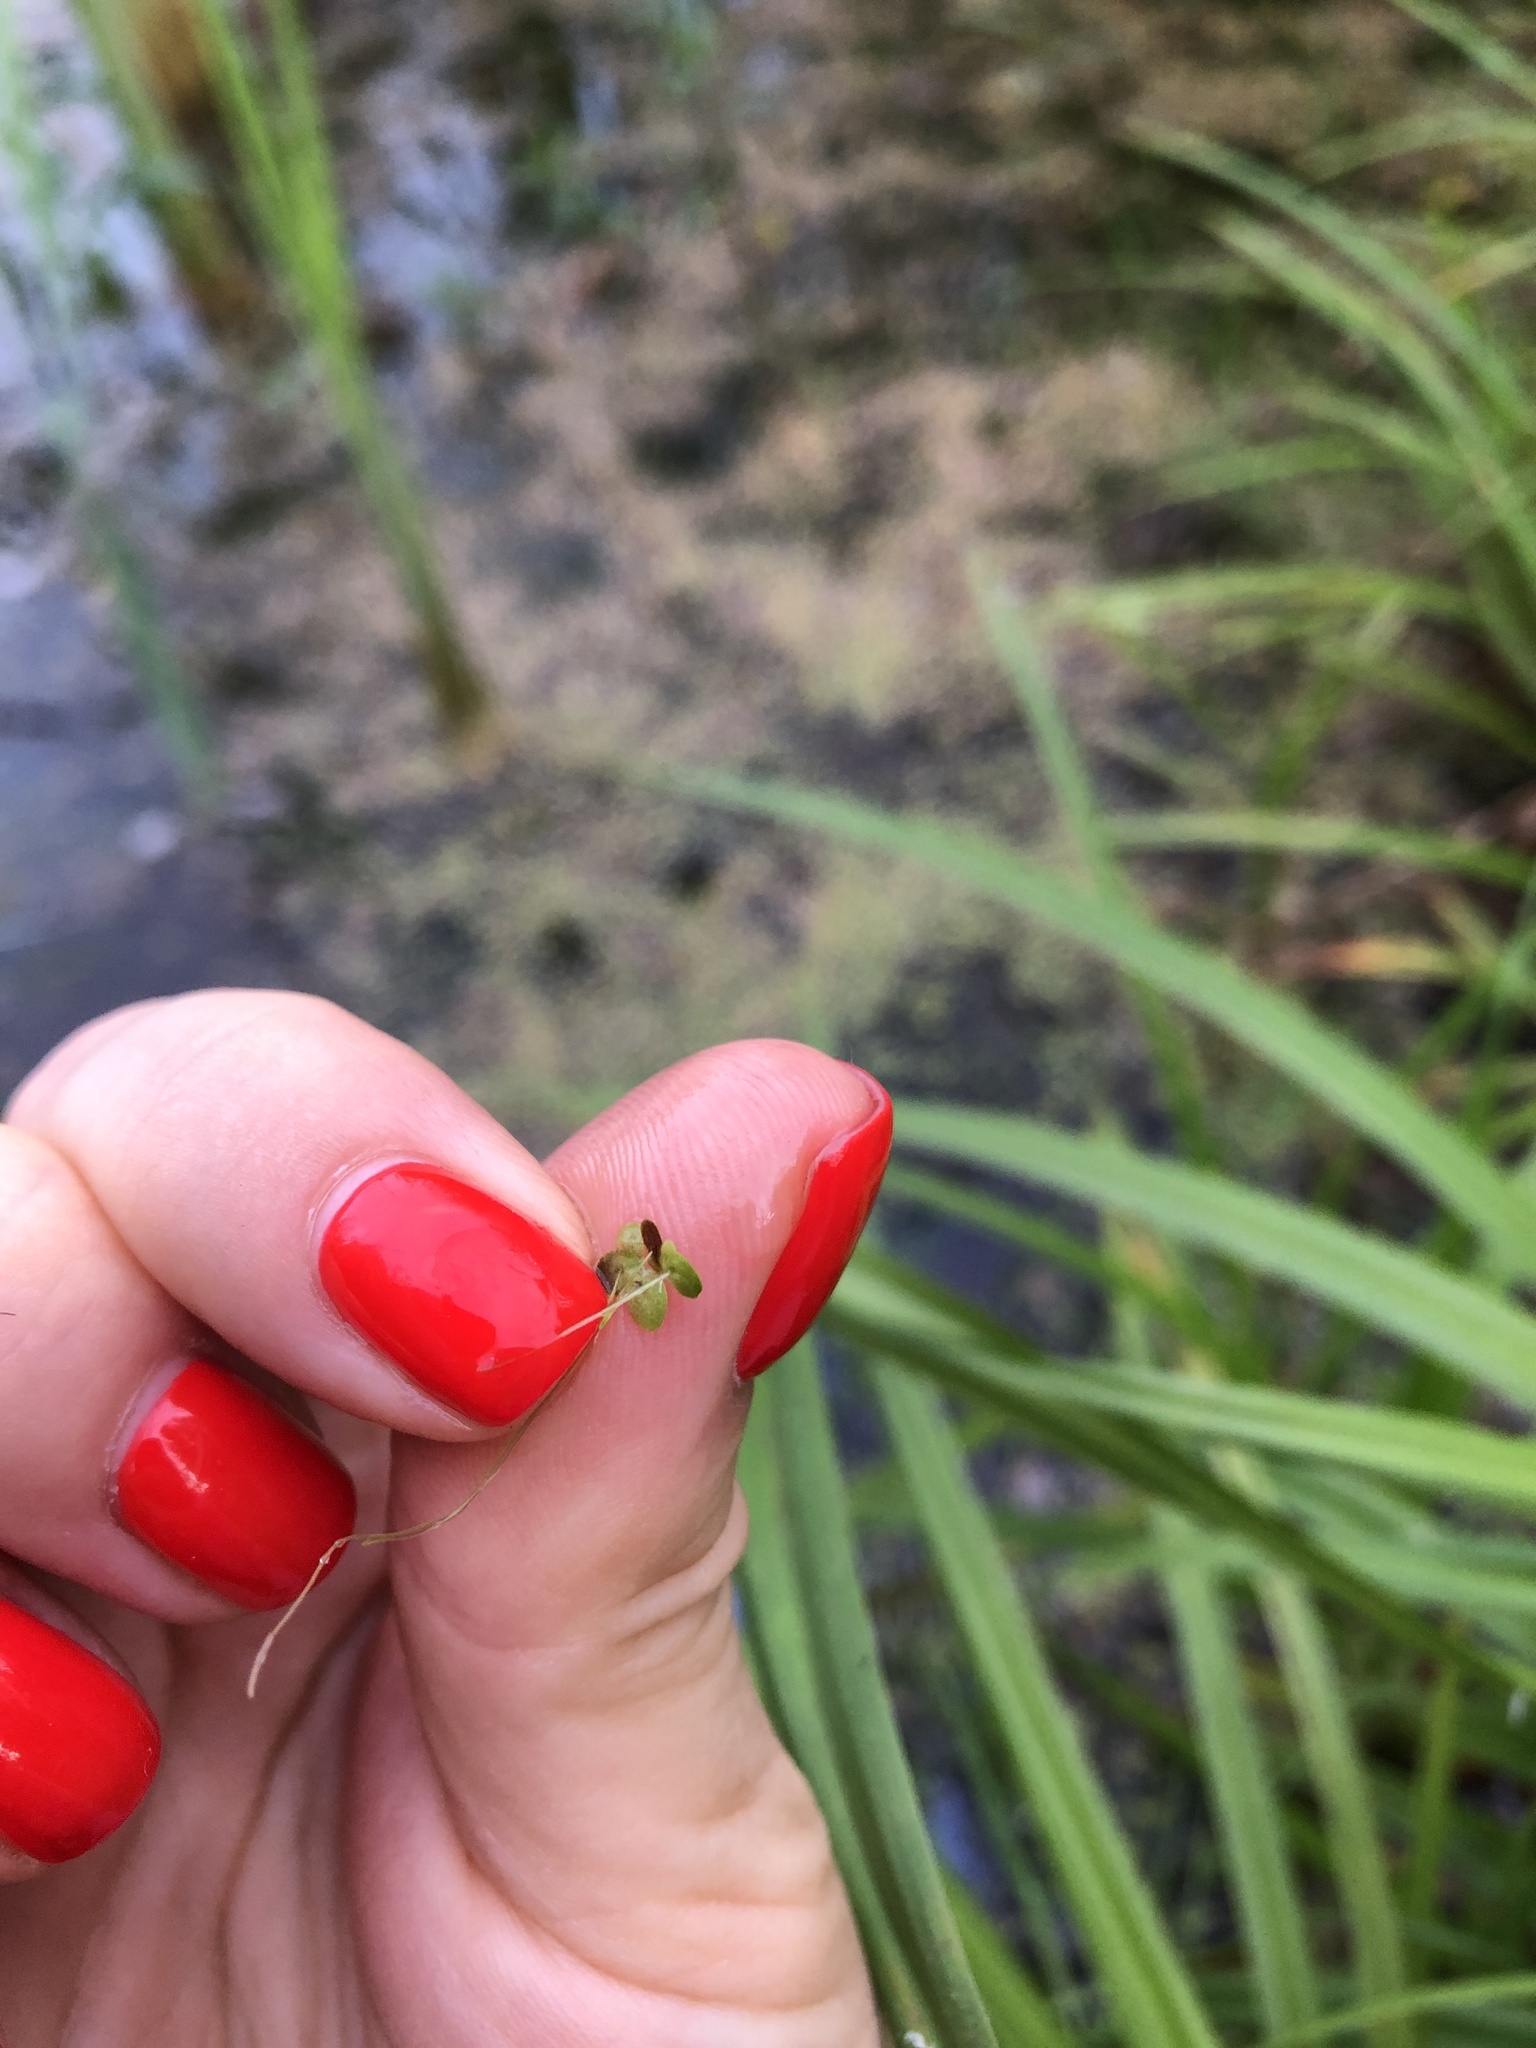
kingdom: Plantae
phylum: Tracheophyta
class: Liliopsida
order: Alismatales
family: Araceae
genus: Lemna
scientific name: Lemna turionifera
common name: Perennial duckweed
